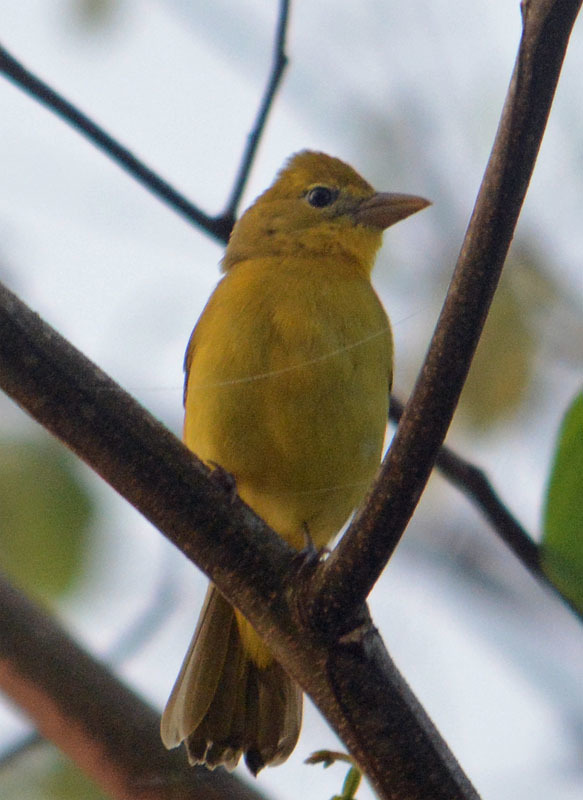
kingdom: Animalia
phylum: Chordata
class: Aves
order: Passeriformes
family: Cardinalidae
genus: Piranga
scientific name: Piranga rubra
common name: Summer tanager
